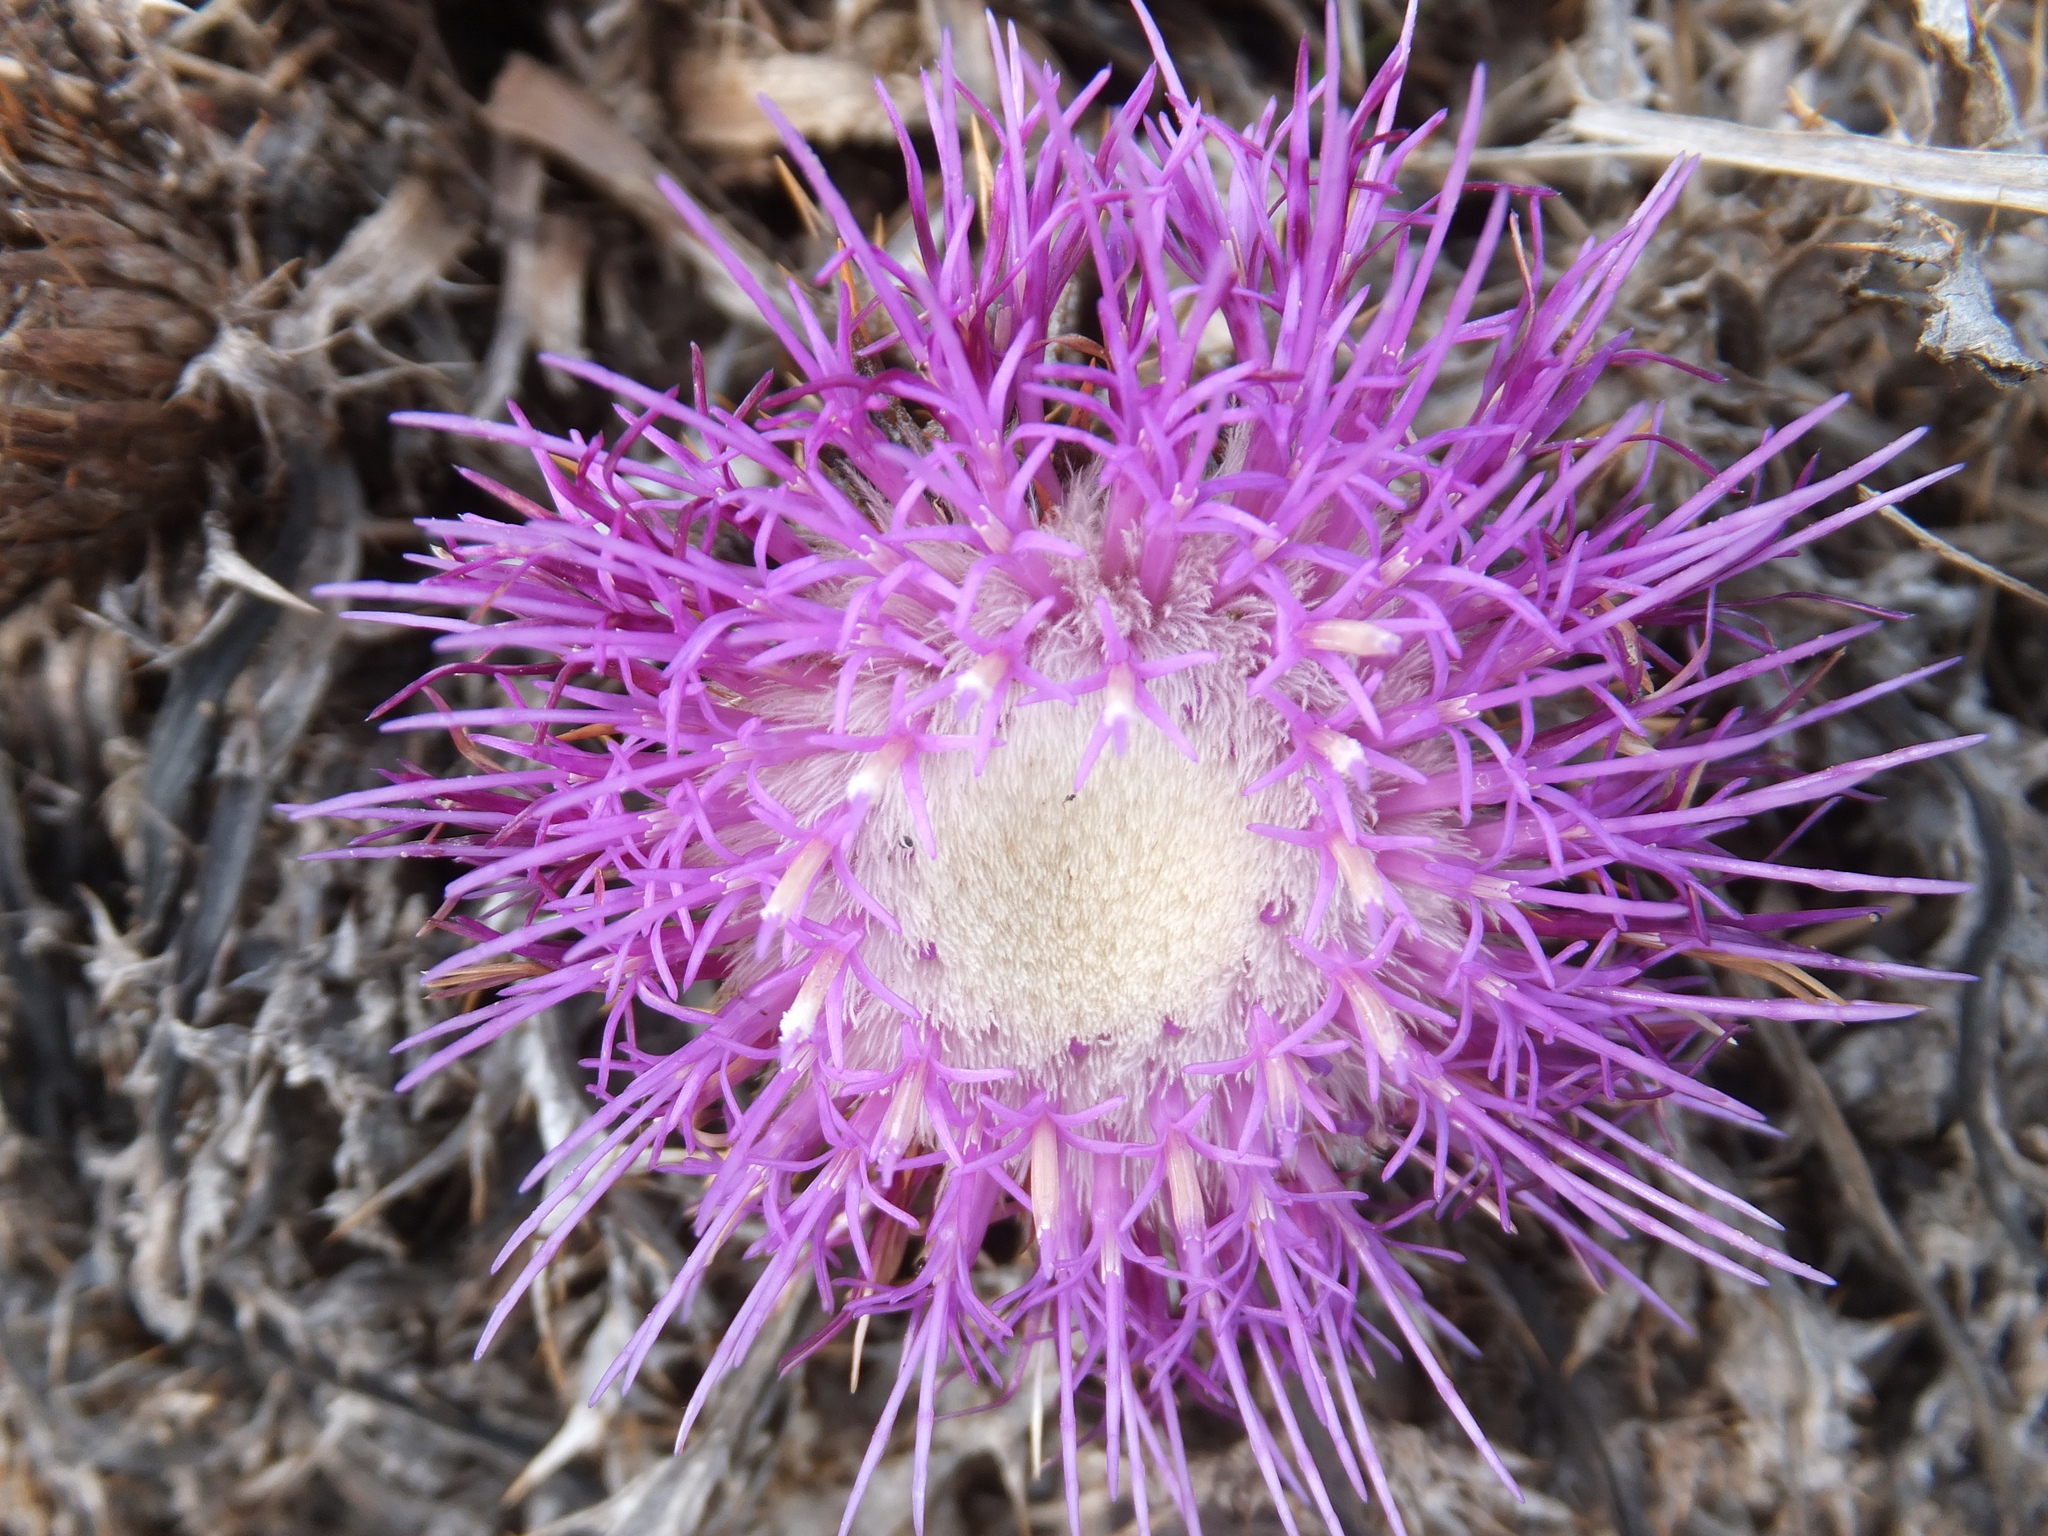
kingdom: Plantae
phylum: Tracheophyta
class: Magnoliopsida
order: Asterales
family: Asteraceae
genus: Chamaeleon
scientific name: Chamaeleon gummifer
